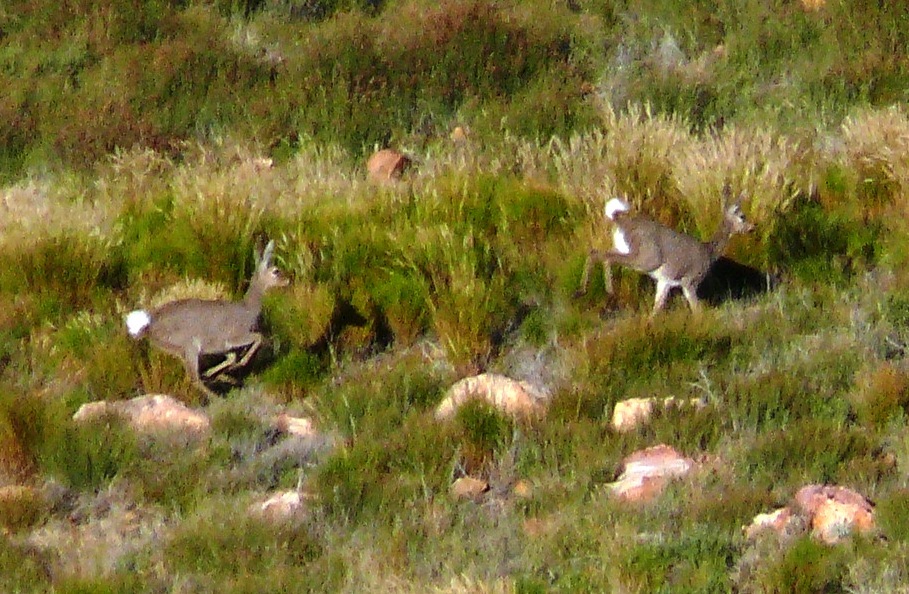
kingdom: Animalia
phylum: Chordata
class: Mammalia
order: Artiodactyla
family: Bovidae
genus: Pelea
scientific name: Pelea capreolus
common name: Common rhebok
